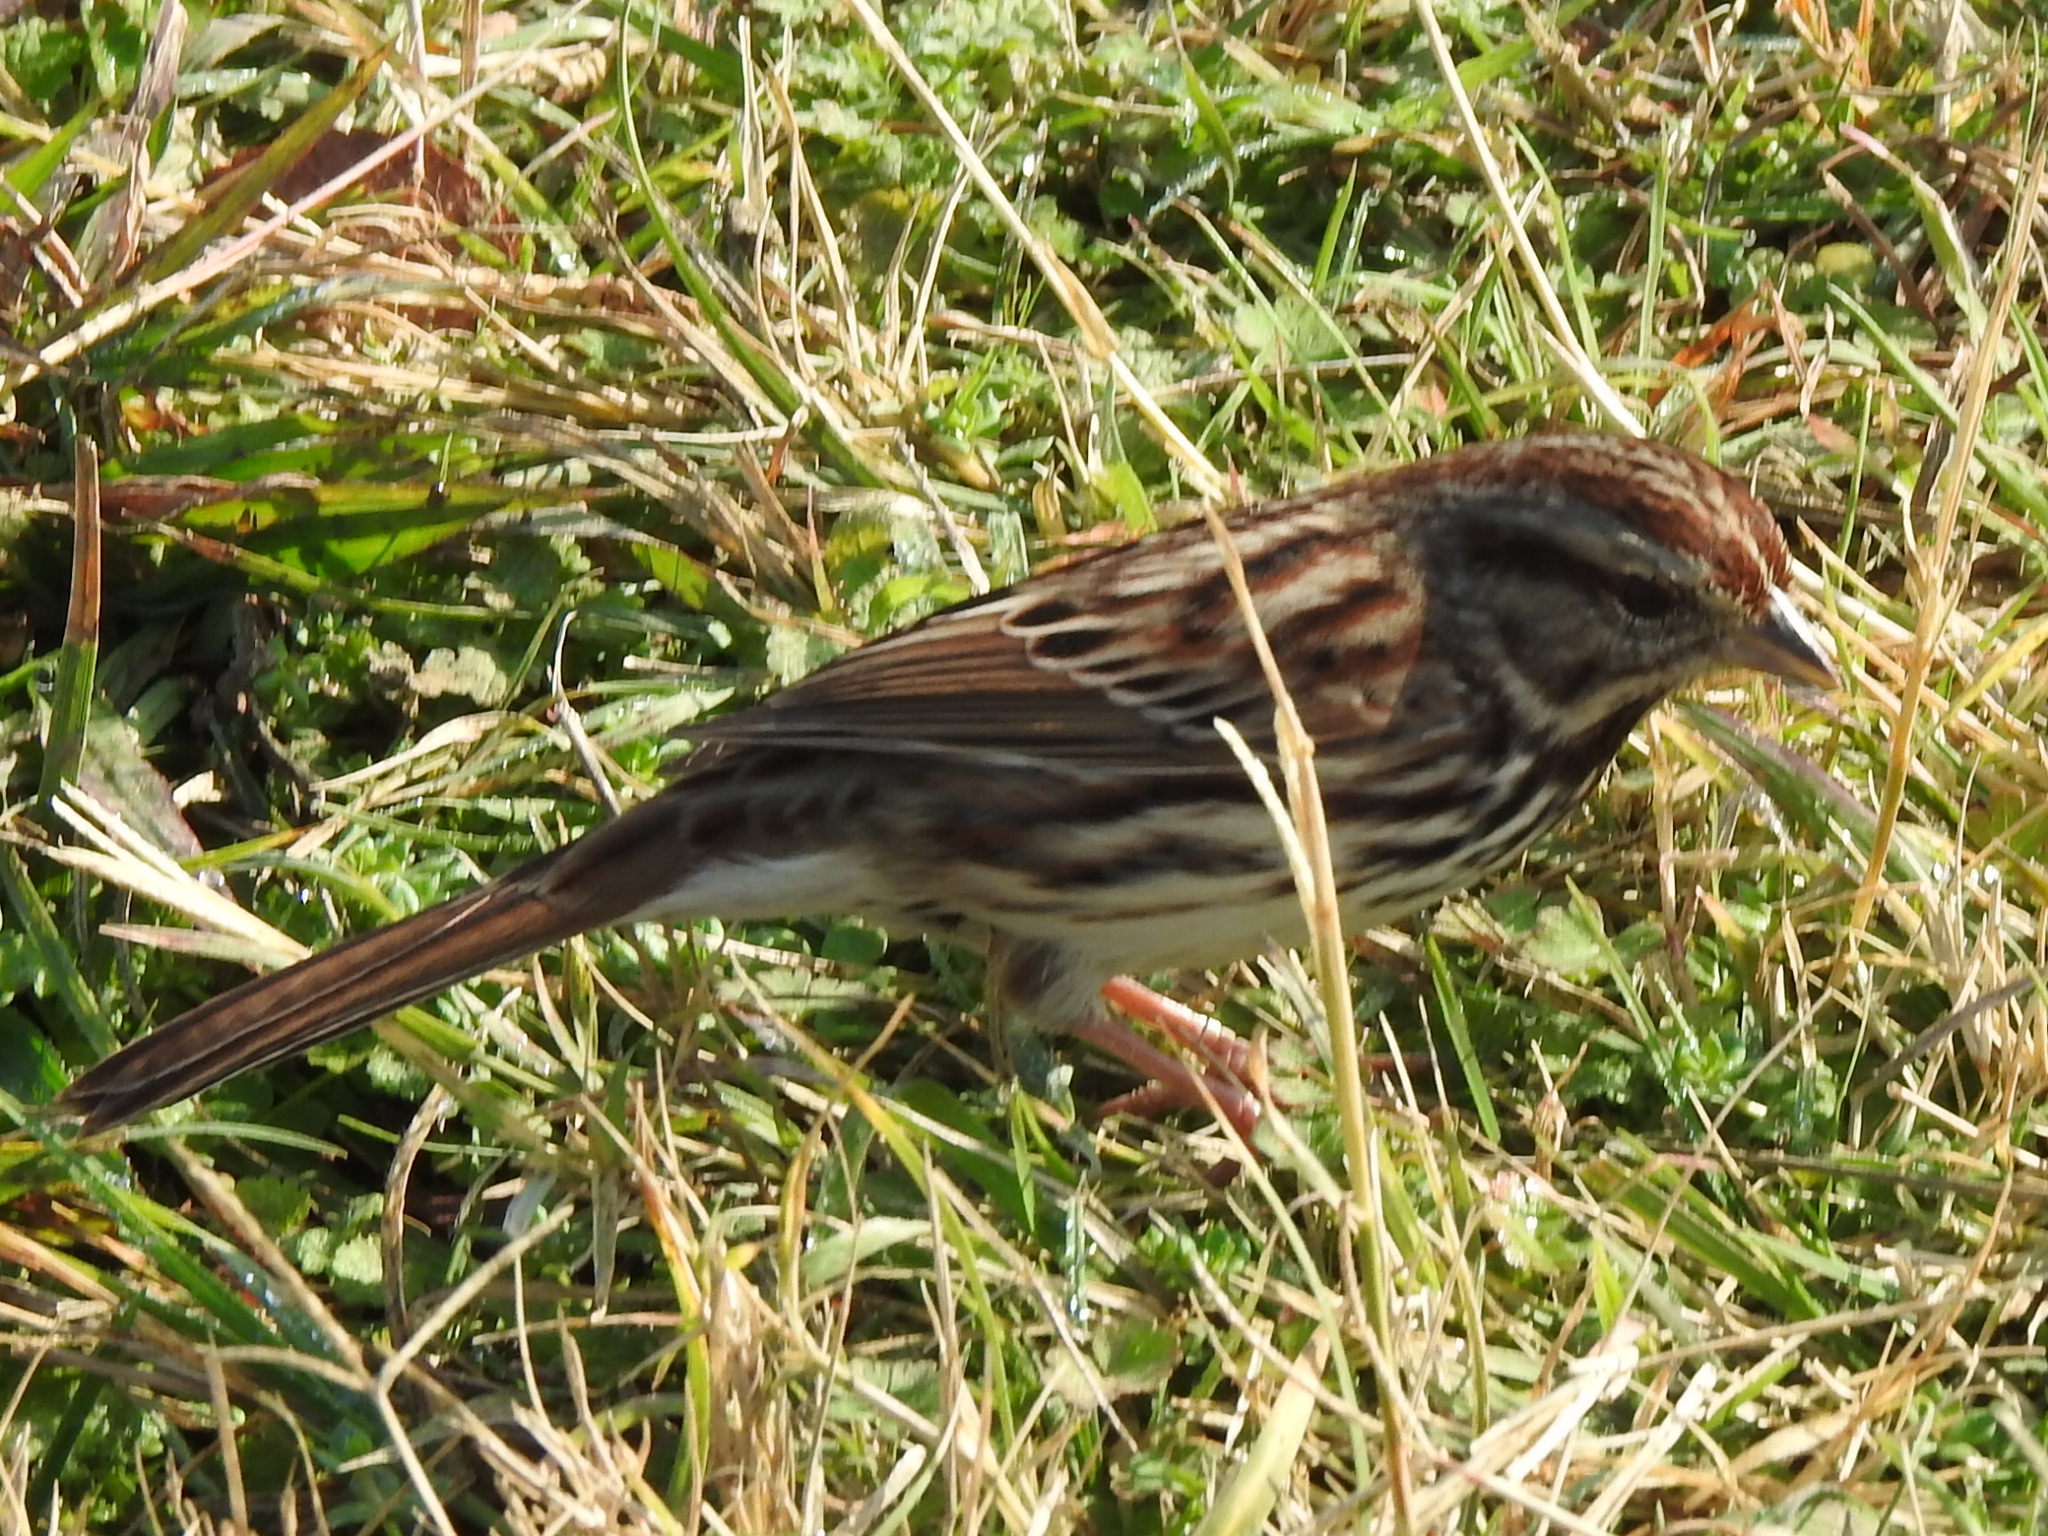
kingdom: Animalia
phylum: Chordata
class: Aves
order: Passeriformes
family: Passerellidae
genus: Melospiza
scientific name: Melospiza melodia
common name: Song sparrow
